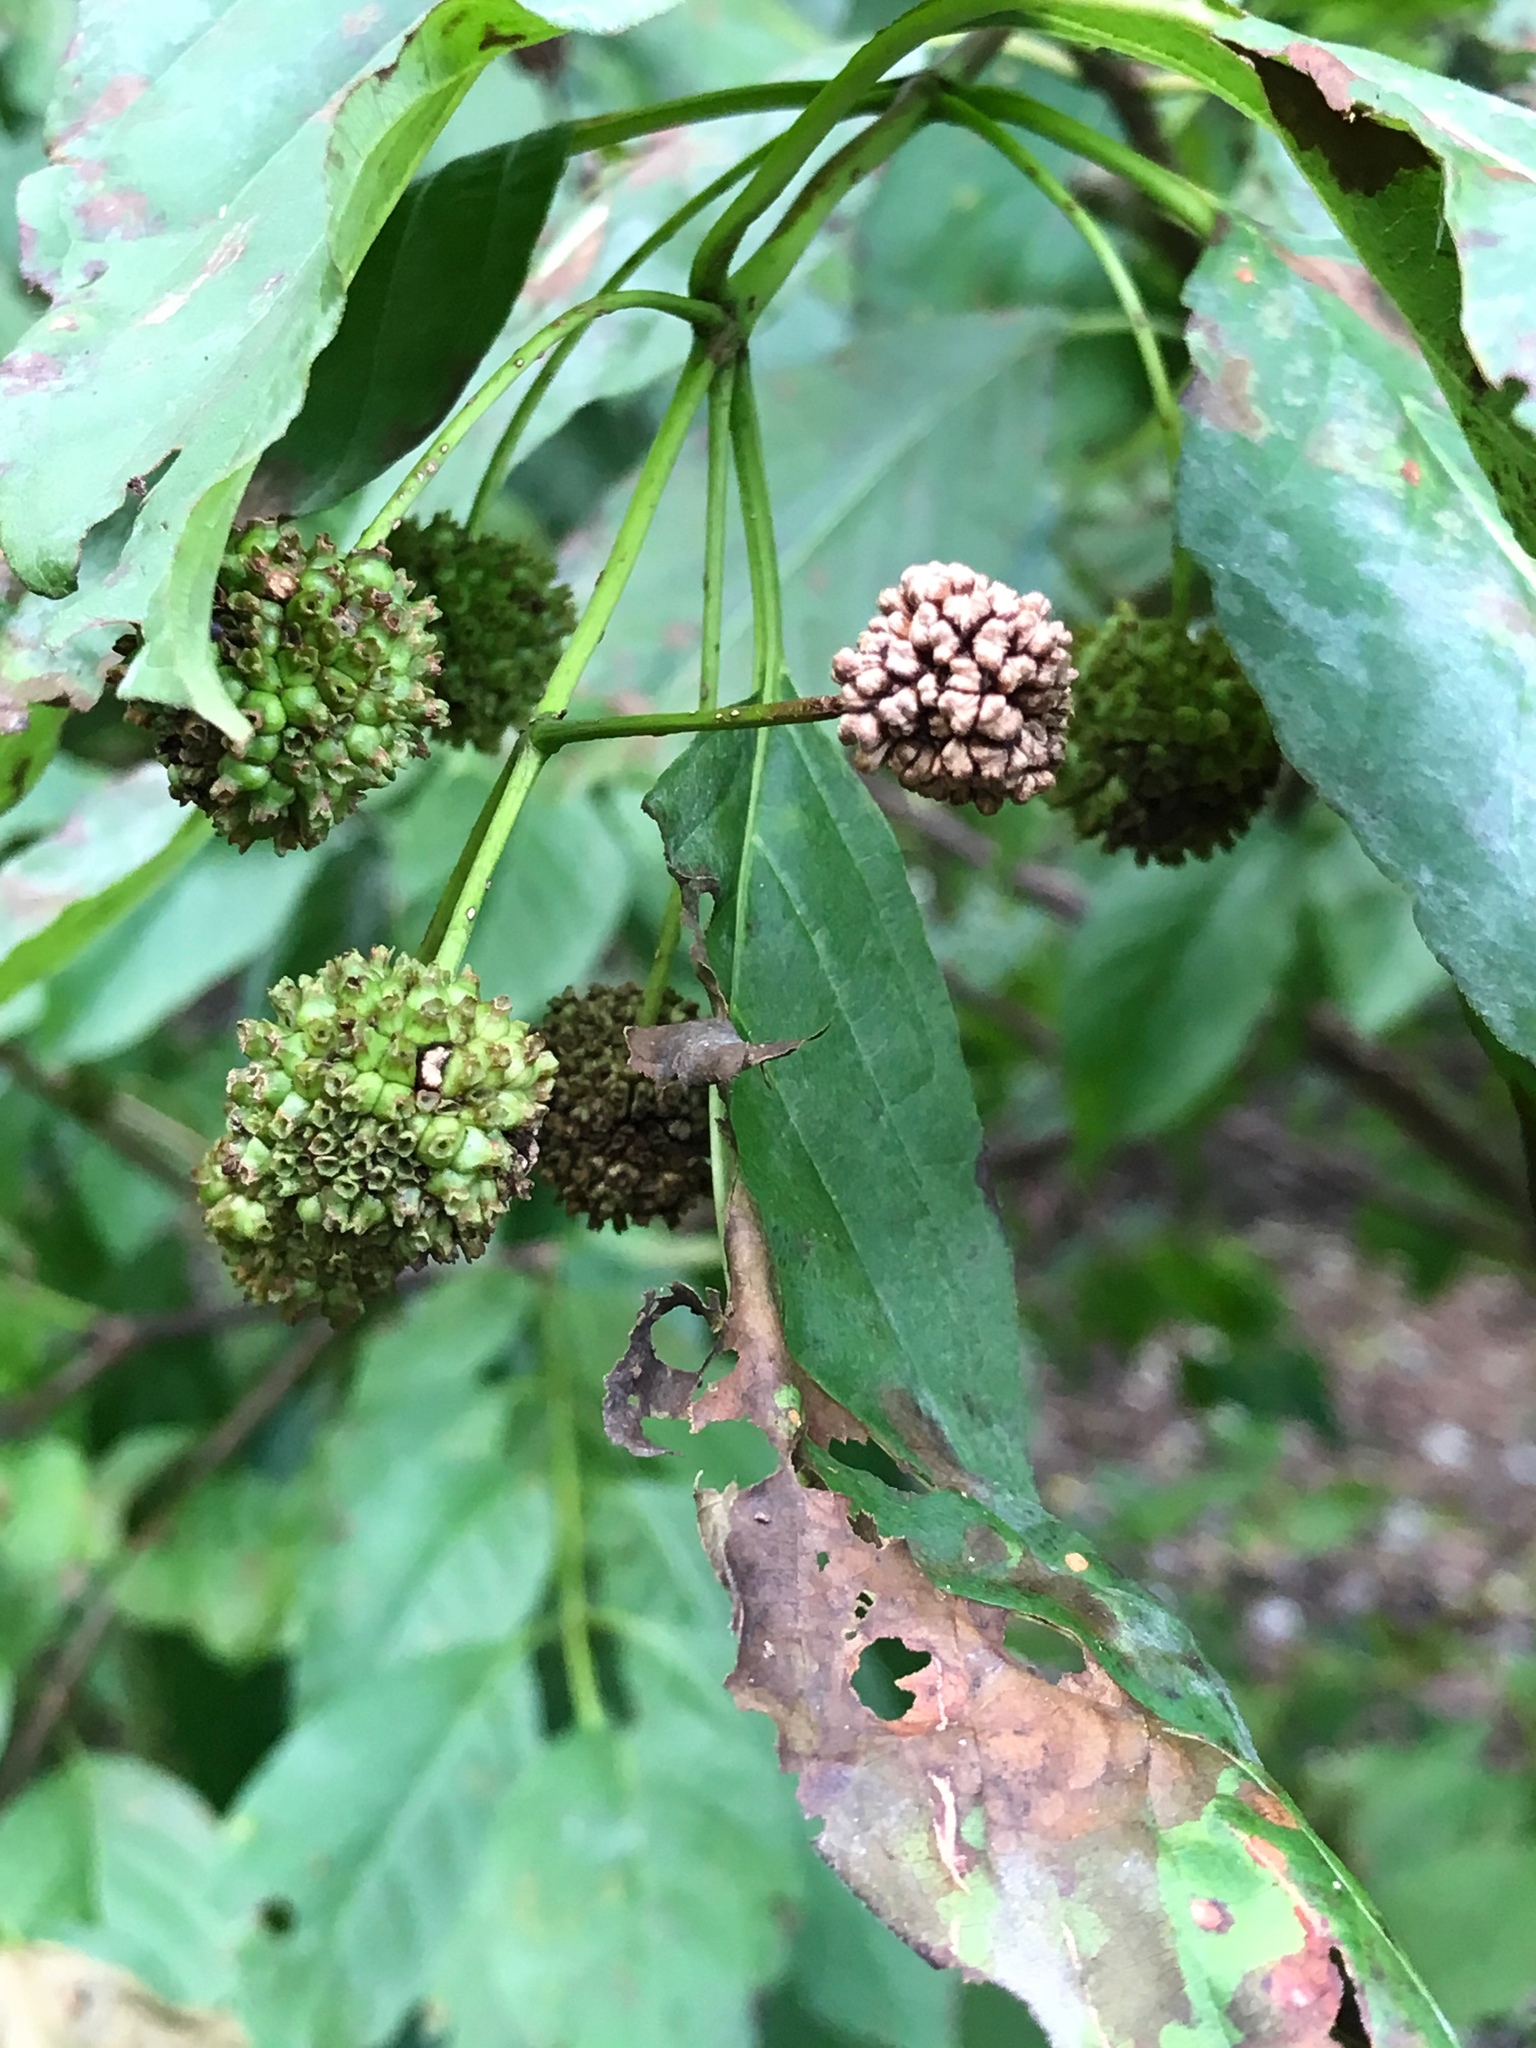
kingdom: Plantae
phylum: Tracheophyta
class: Magnoliopsida
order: Gentianales
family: Rubiaceae
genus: Cephalanthus
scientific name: Cephalanthus occidentalis
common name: Button-willow
